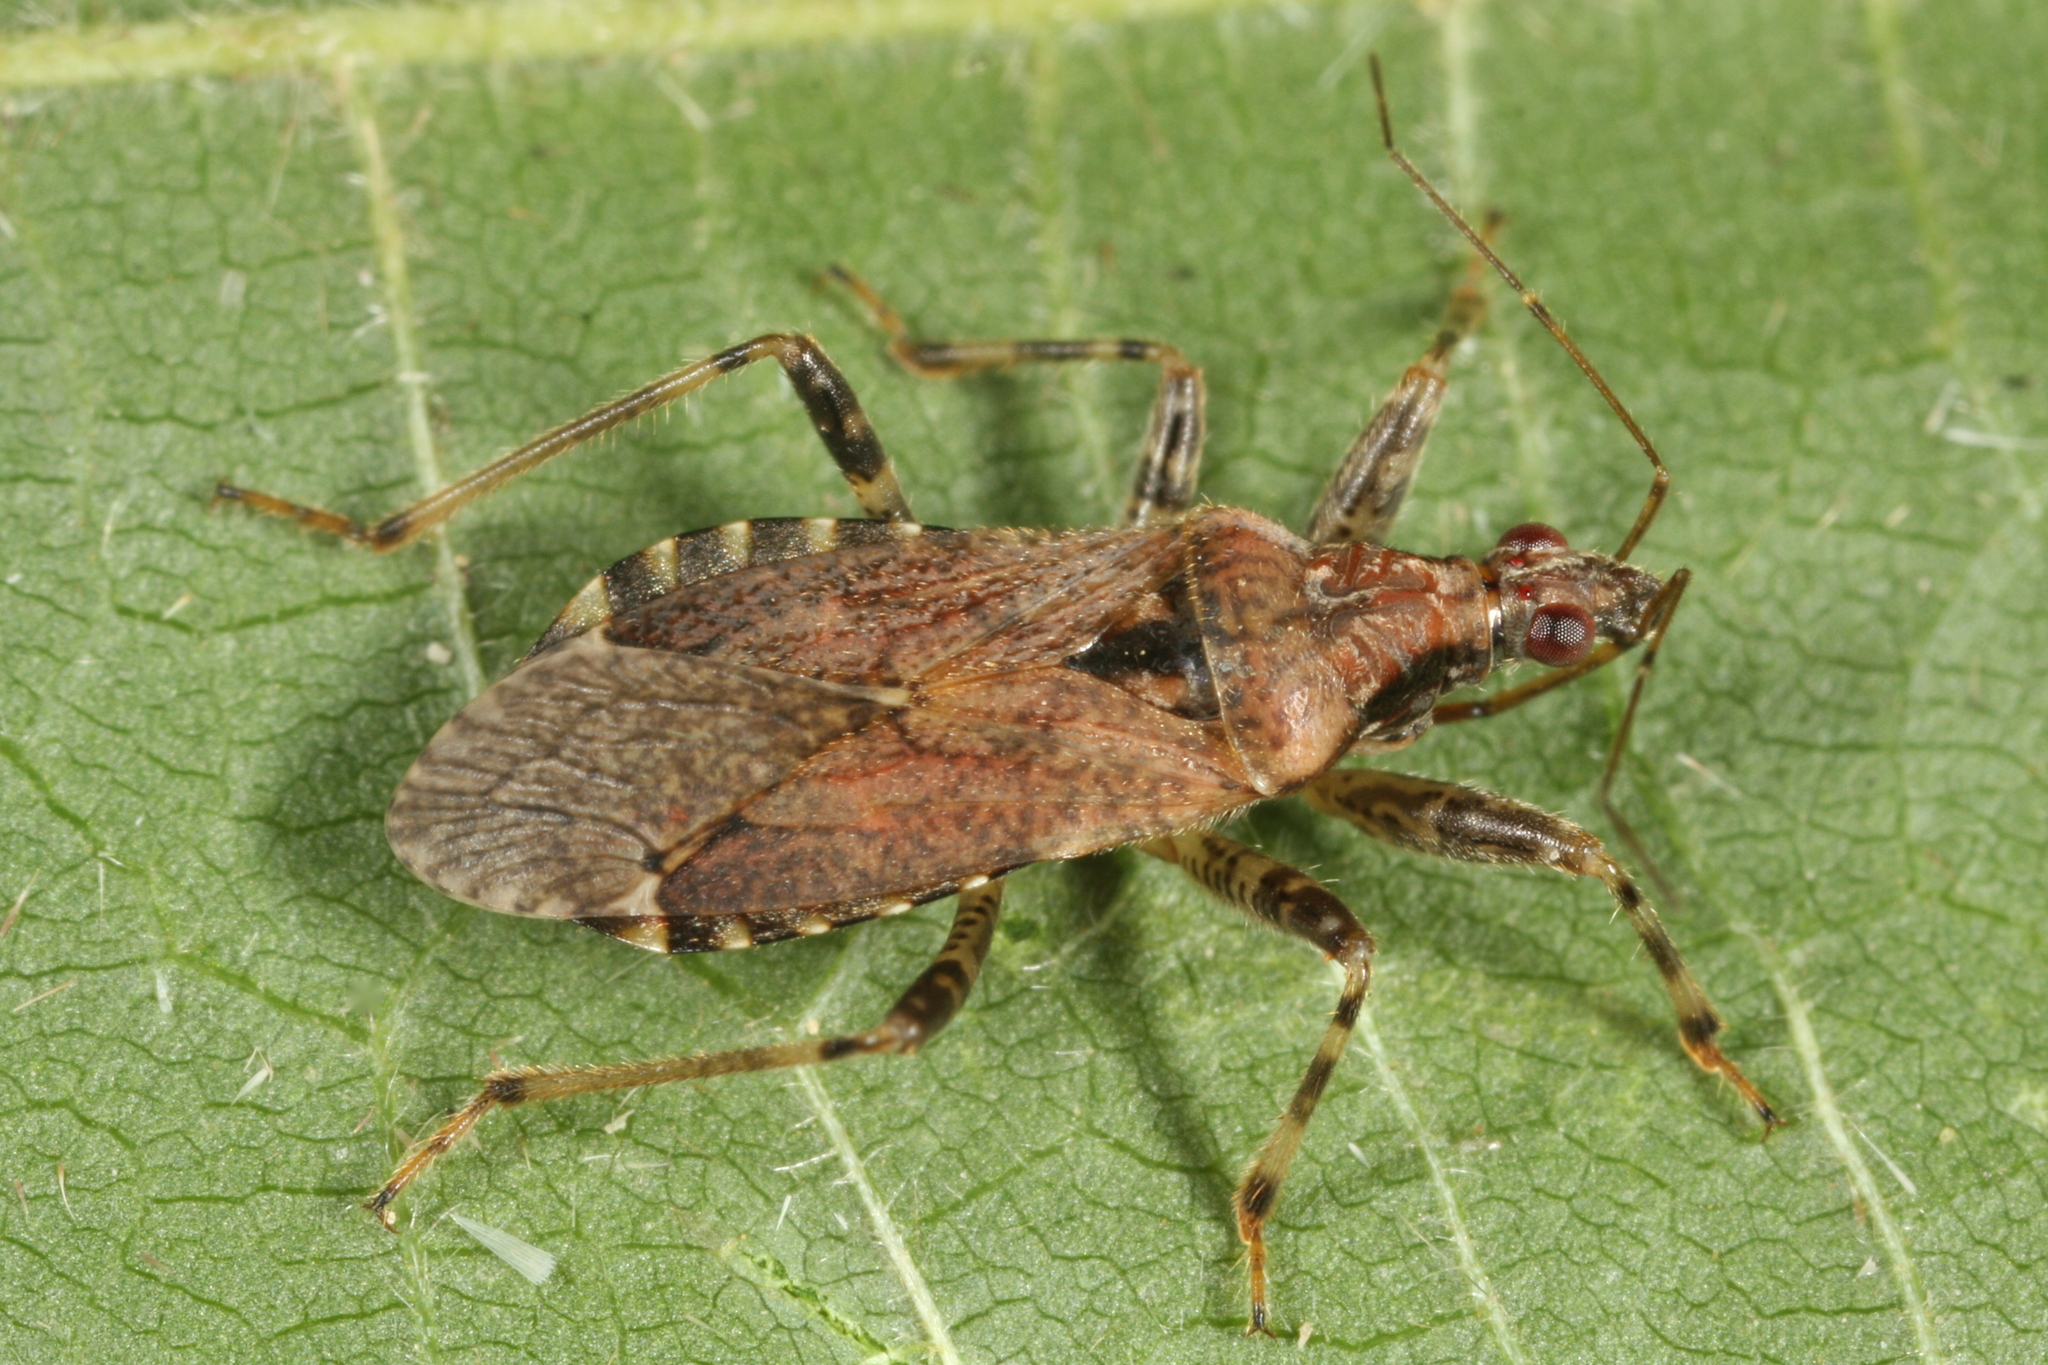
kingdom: Animalia
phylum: Arthropoda
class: Insecta
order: Hemiptera
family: Nabidae
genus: Himacerus
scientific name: Himacerus mirmicoides
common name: Ant damsel bug
